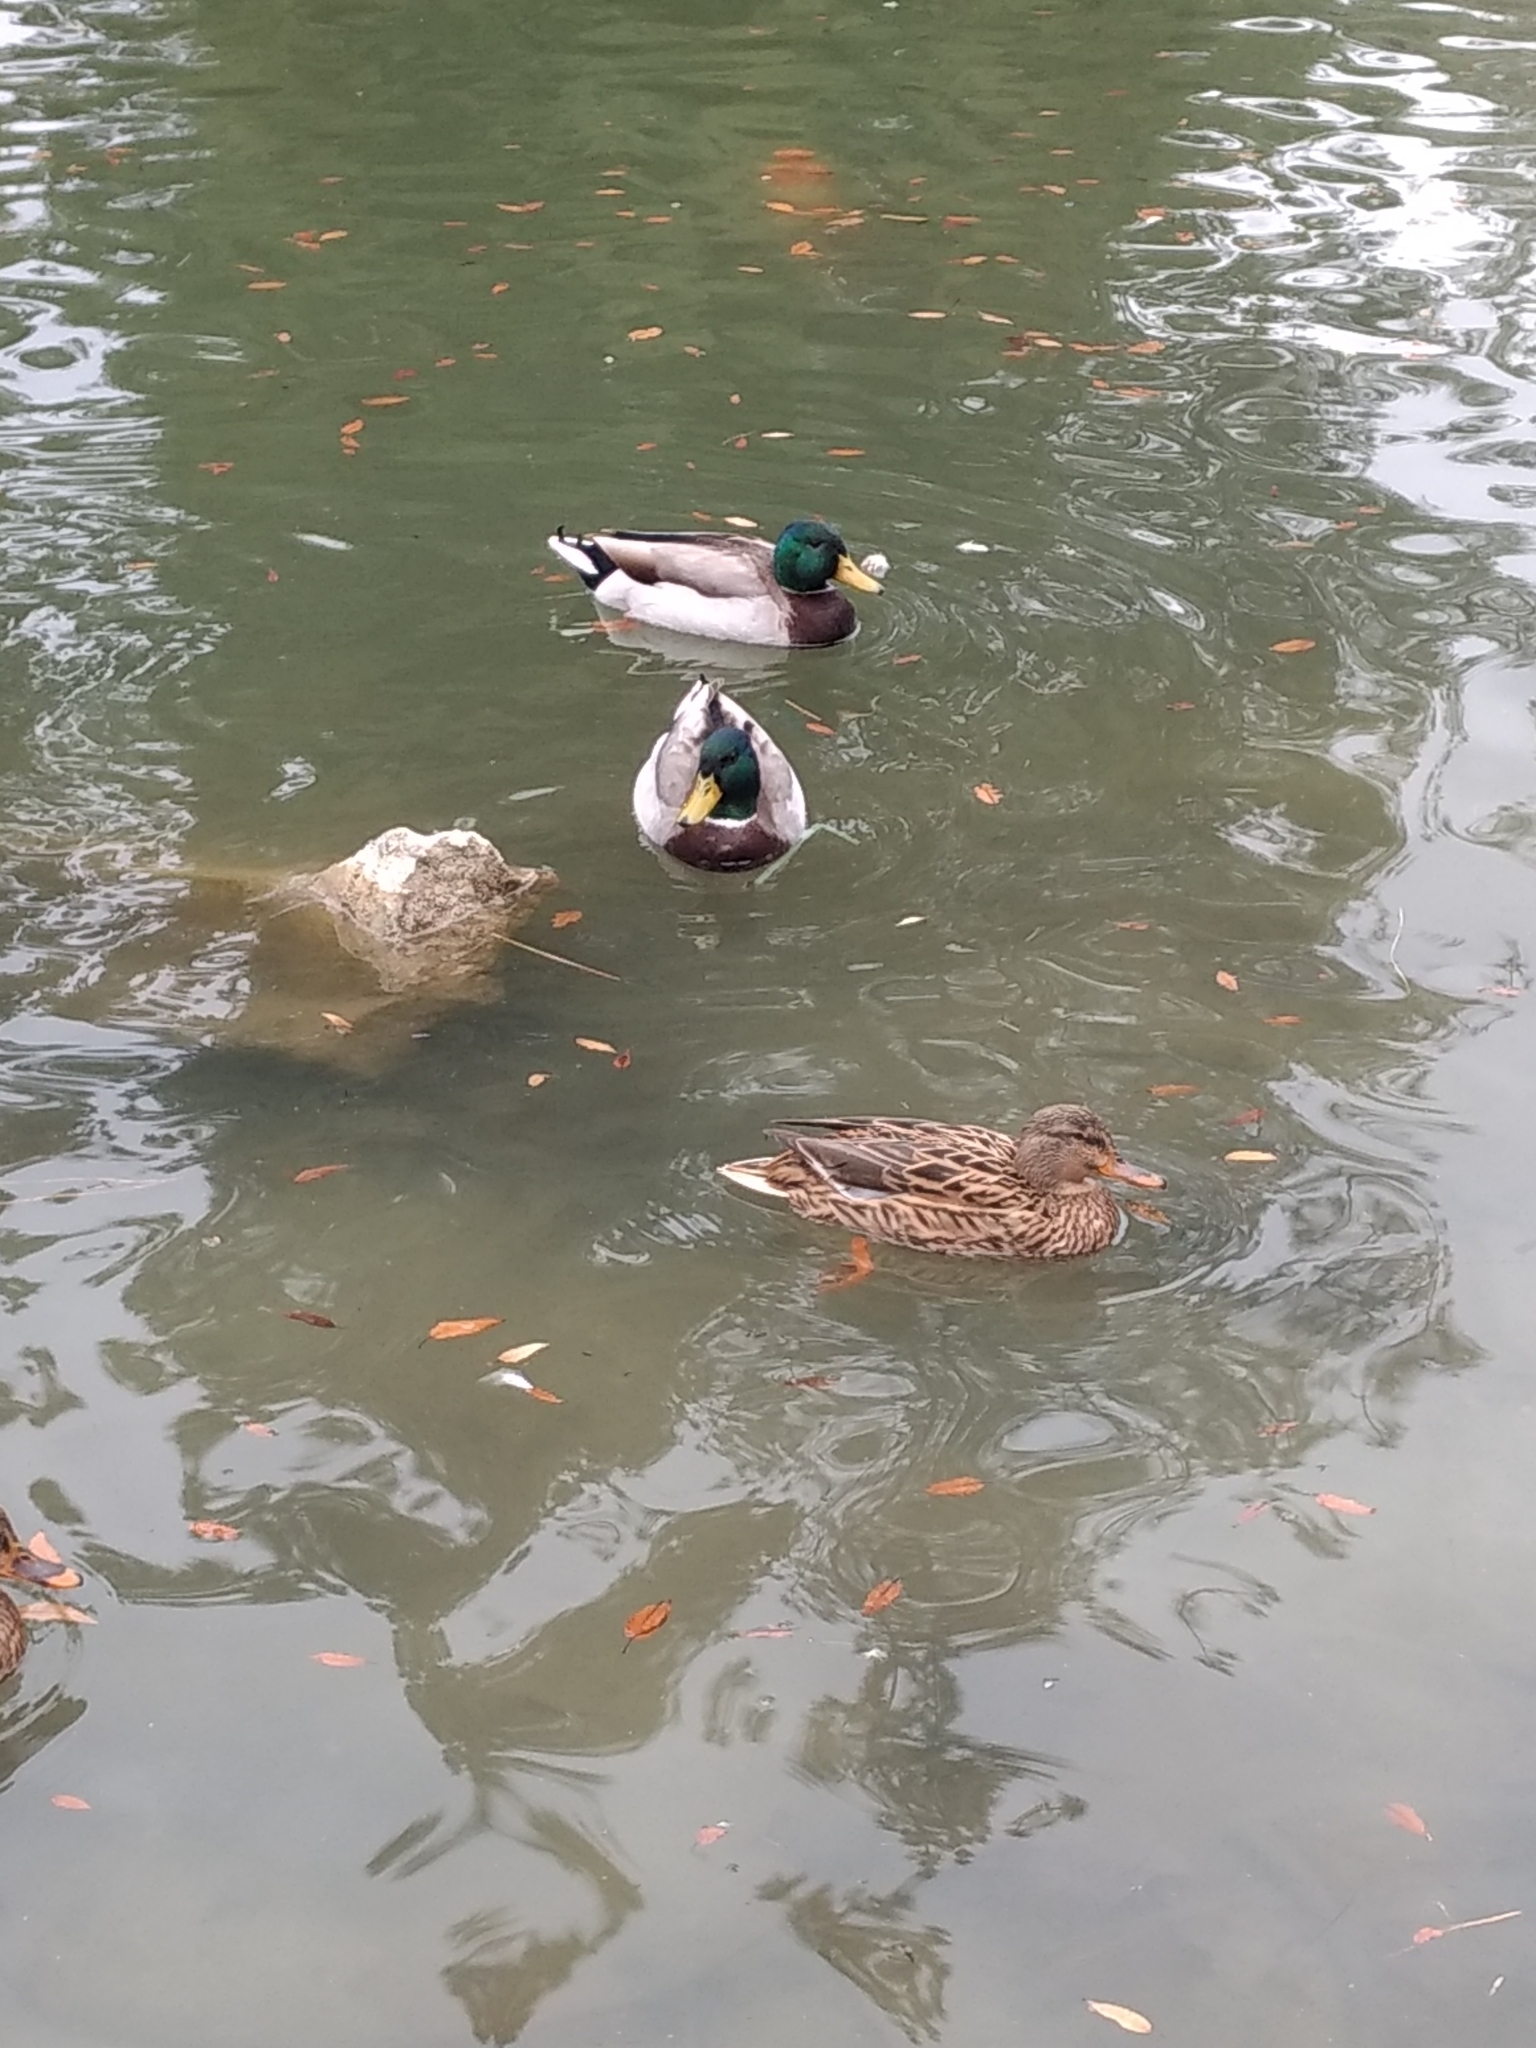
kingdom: Animalia
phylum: Chordata
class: Aves
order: Anseriformes
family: Anatidae
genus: Anas
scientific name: Anas platyrhynchos
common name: Mallard
